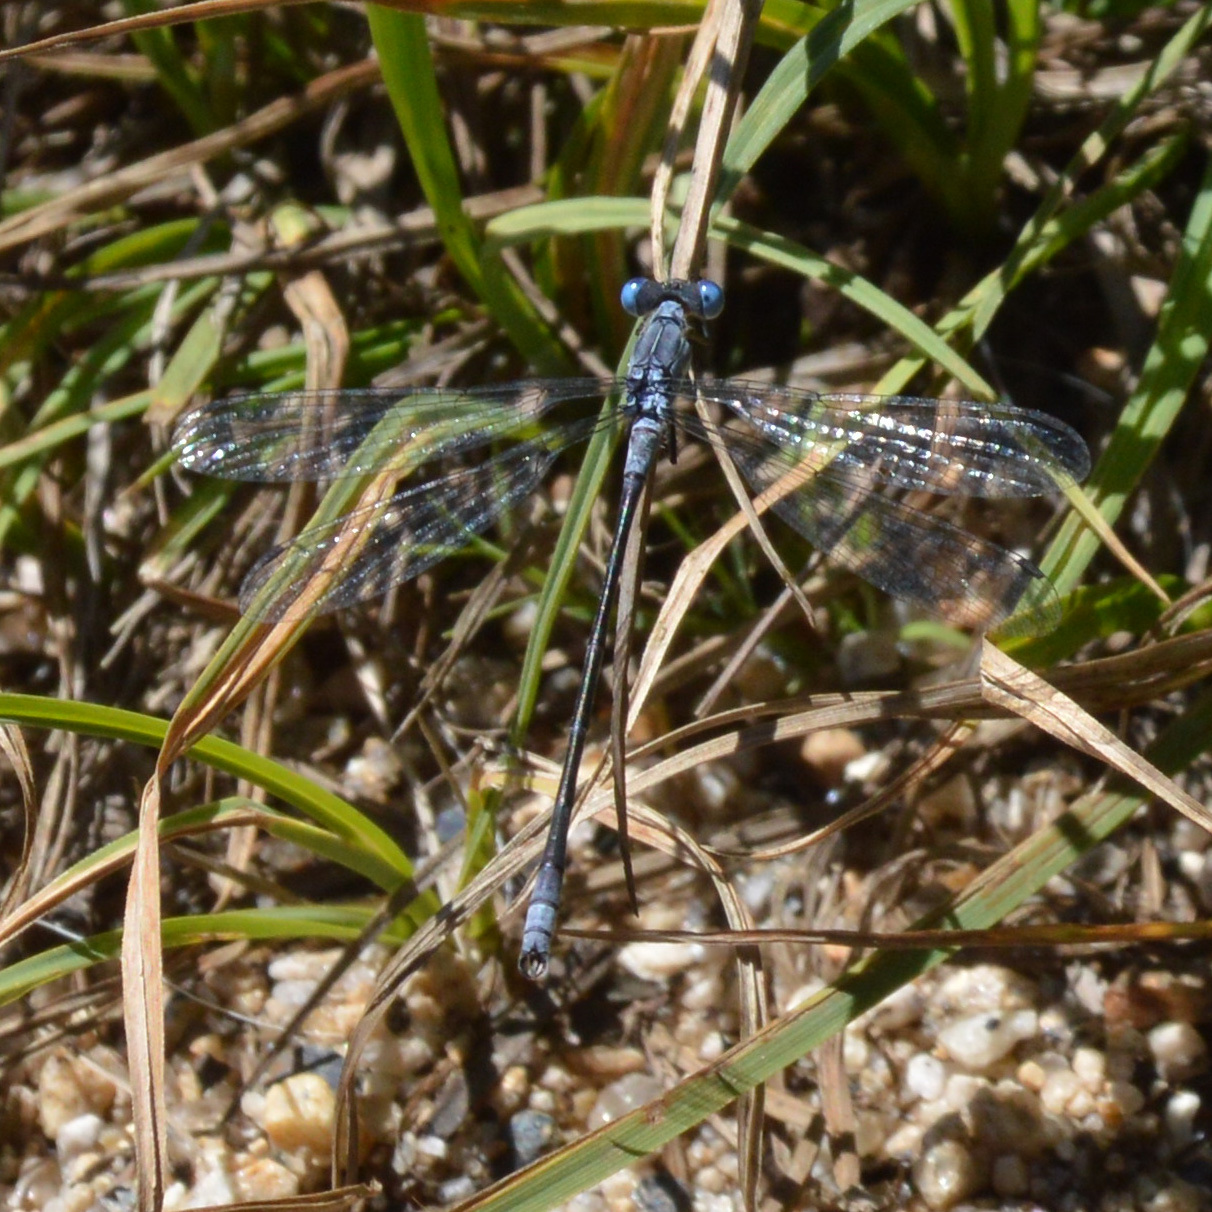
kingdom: Animalia
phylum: Arthropoda
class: Insecta
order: Odonata
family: Lestidae
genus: Lestes
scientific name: Lestes disjunctus
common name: Northern spreadwing
